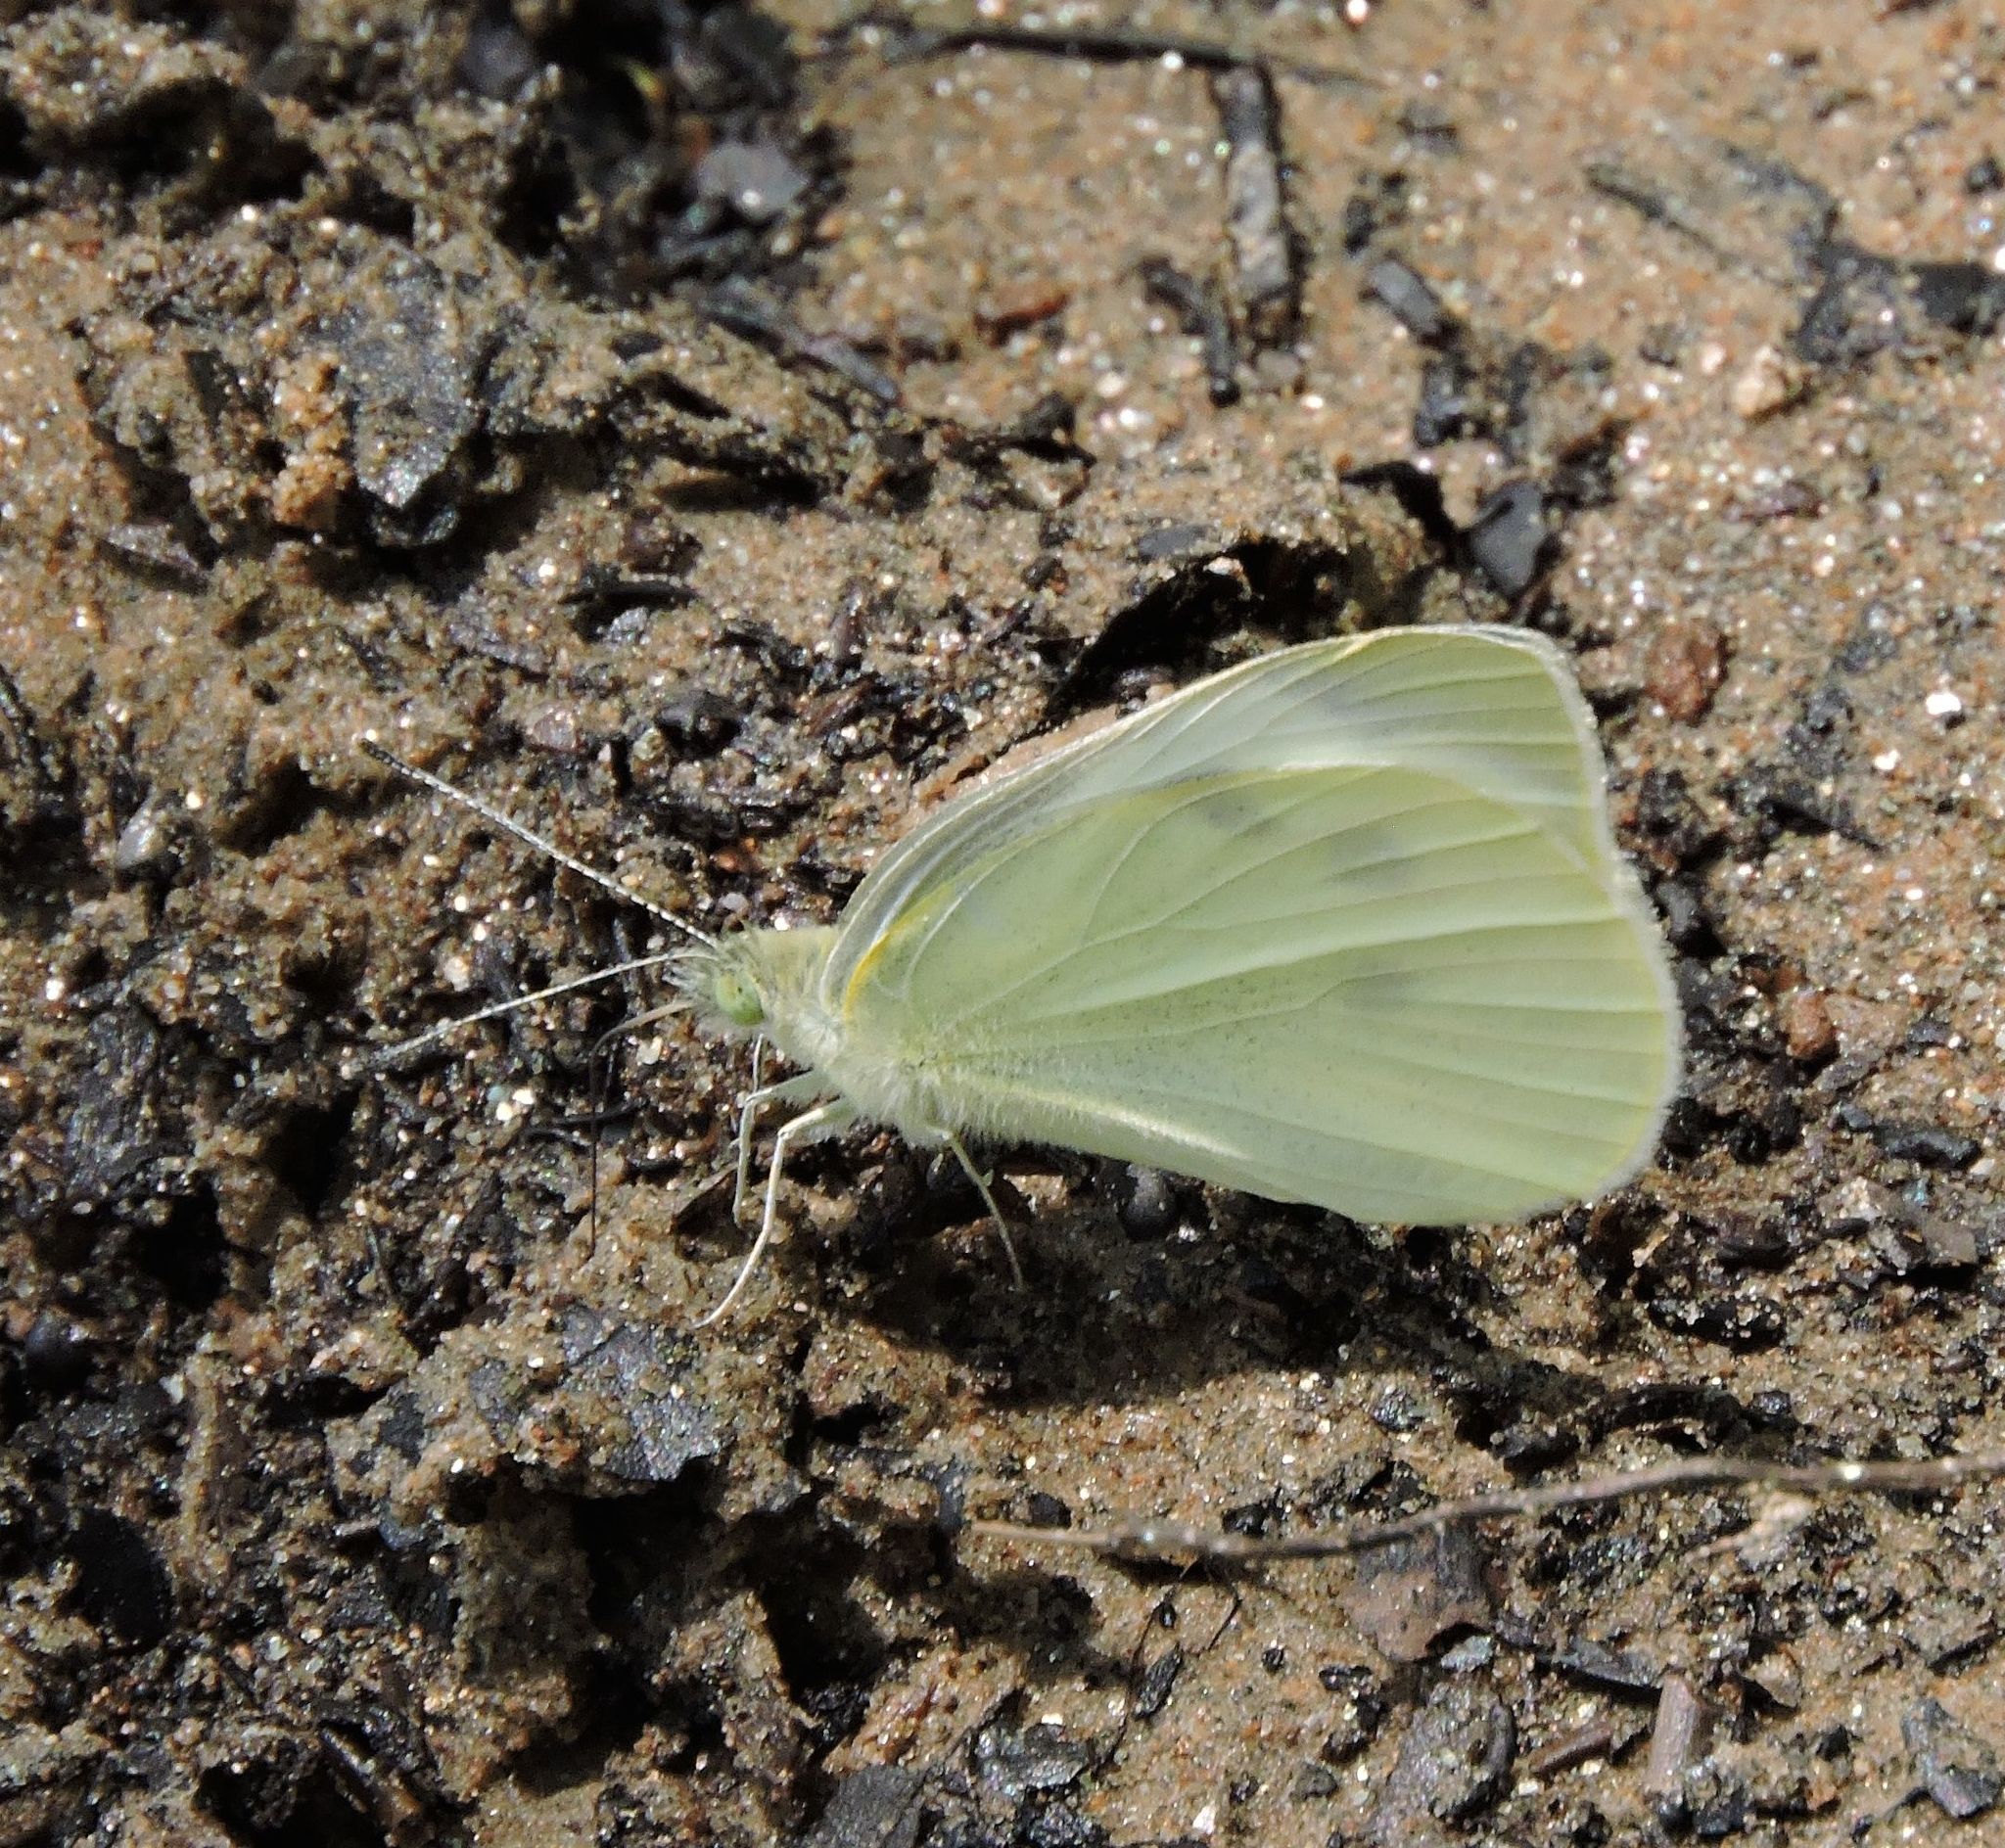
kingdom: Animalia
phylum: Arthropoda
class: Insecta
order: Lepidoptera
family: Pieridae
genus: Pieris
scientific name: Pieris rapae
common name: Small white
